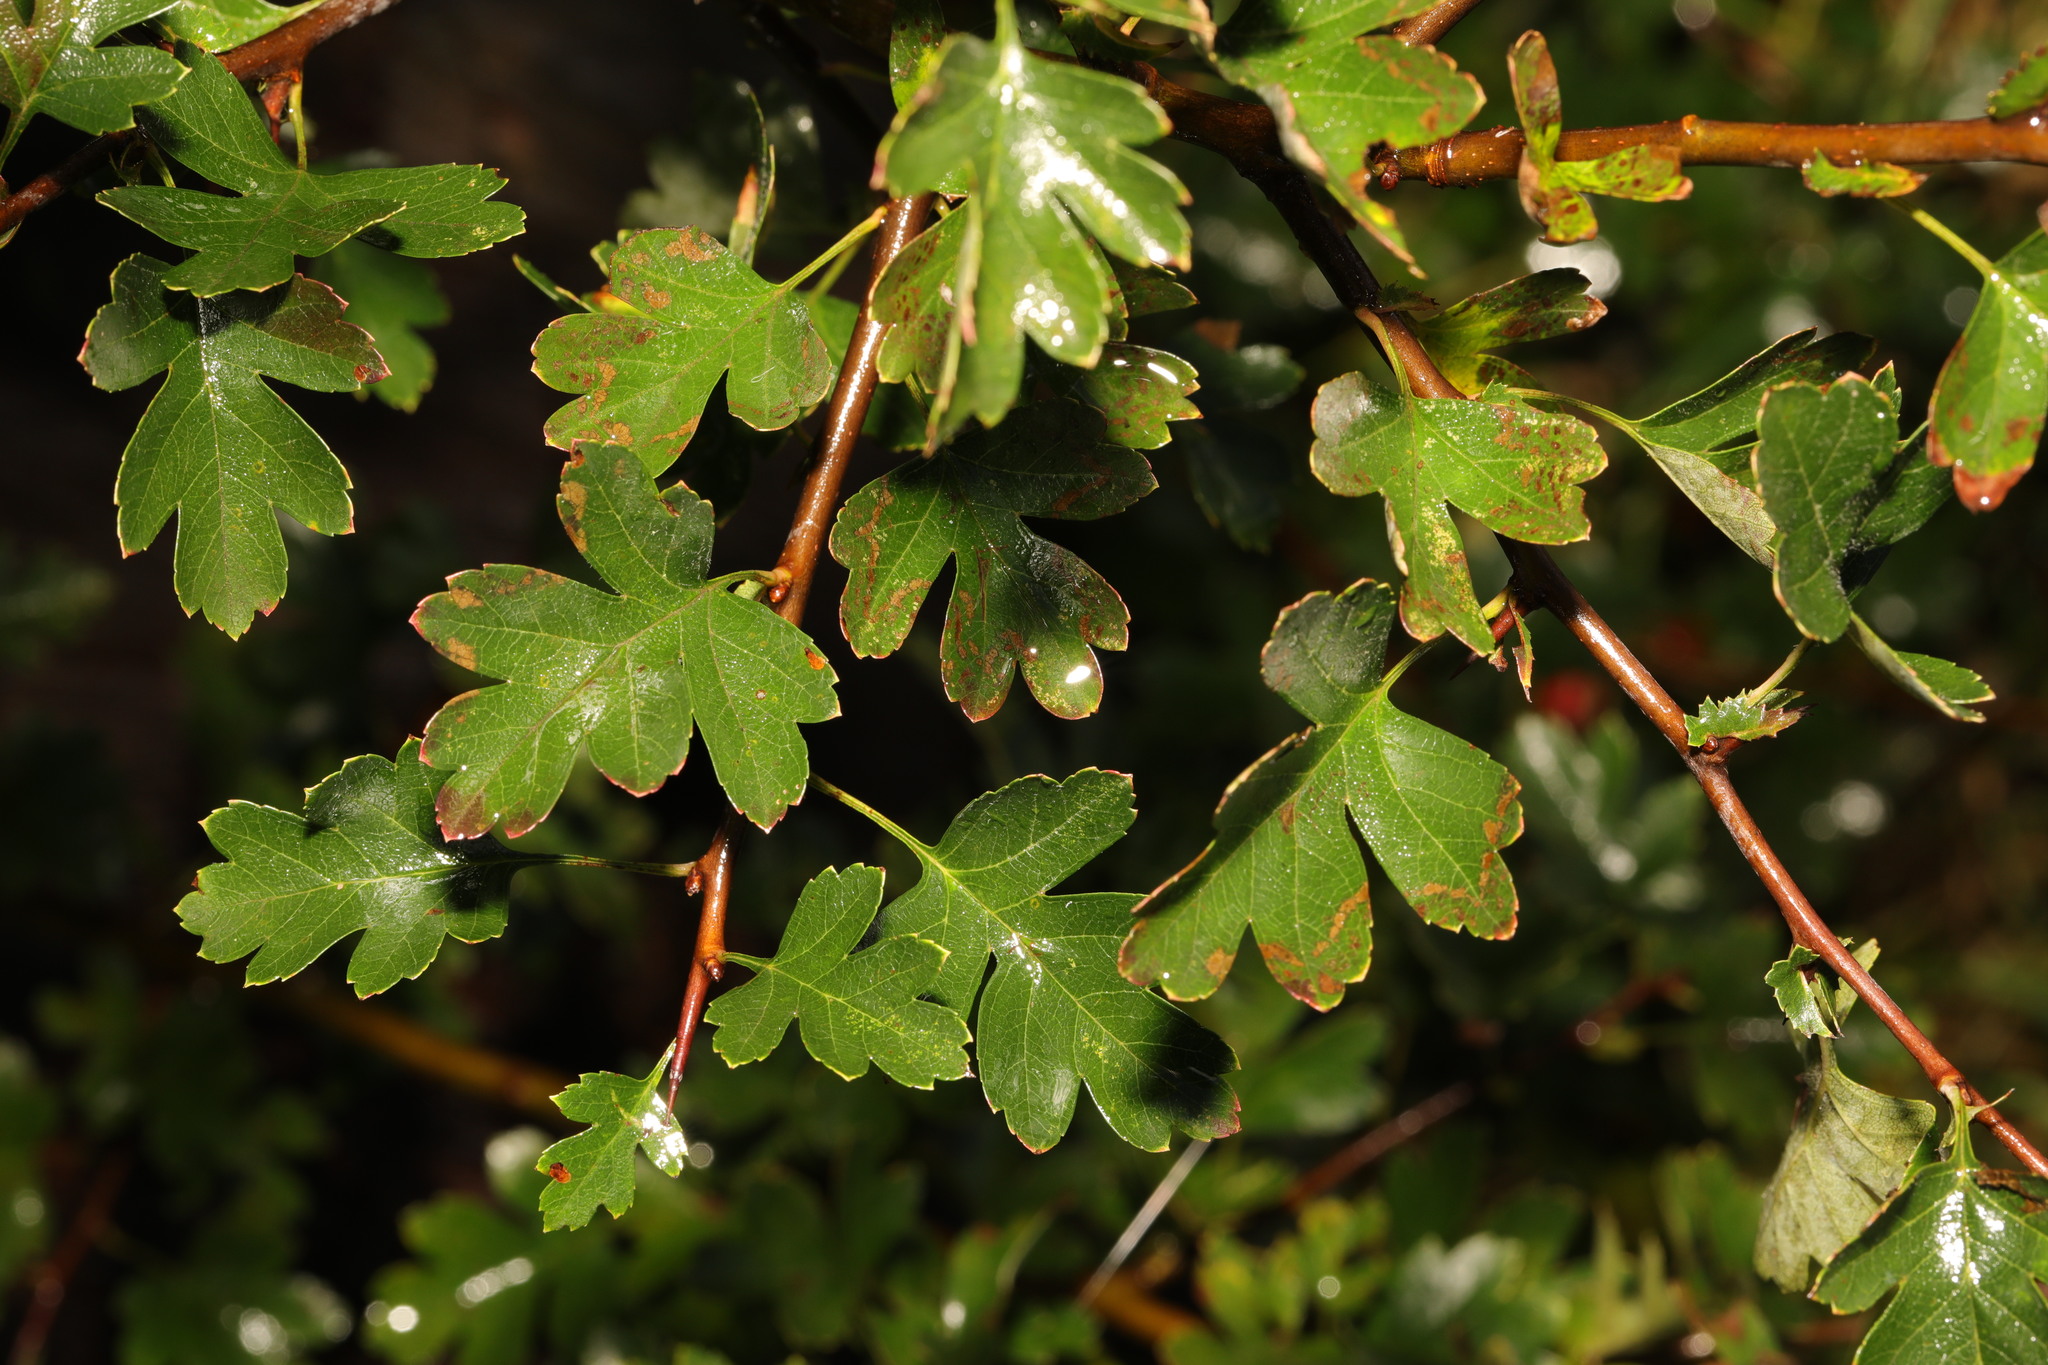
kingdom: Plantae
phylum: Tracheophyta
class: Magnoliopsida
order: Rosales
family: Rosaceae
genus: Crataegus
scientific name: Crataegus monogyna
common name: Hawthorn
